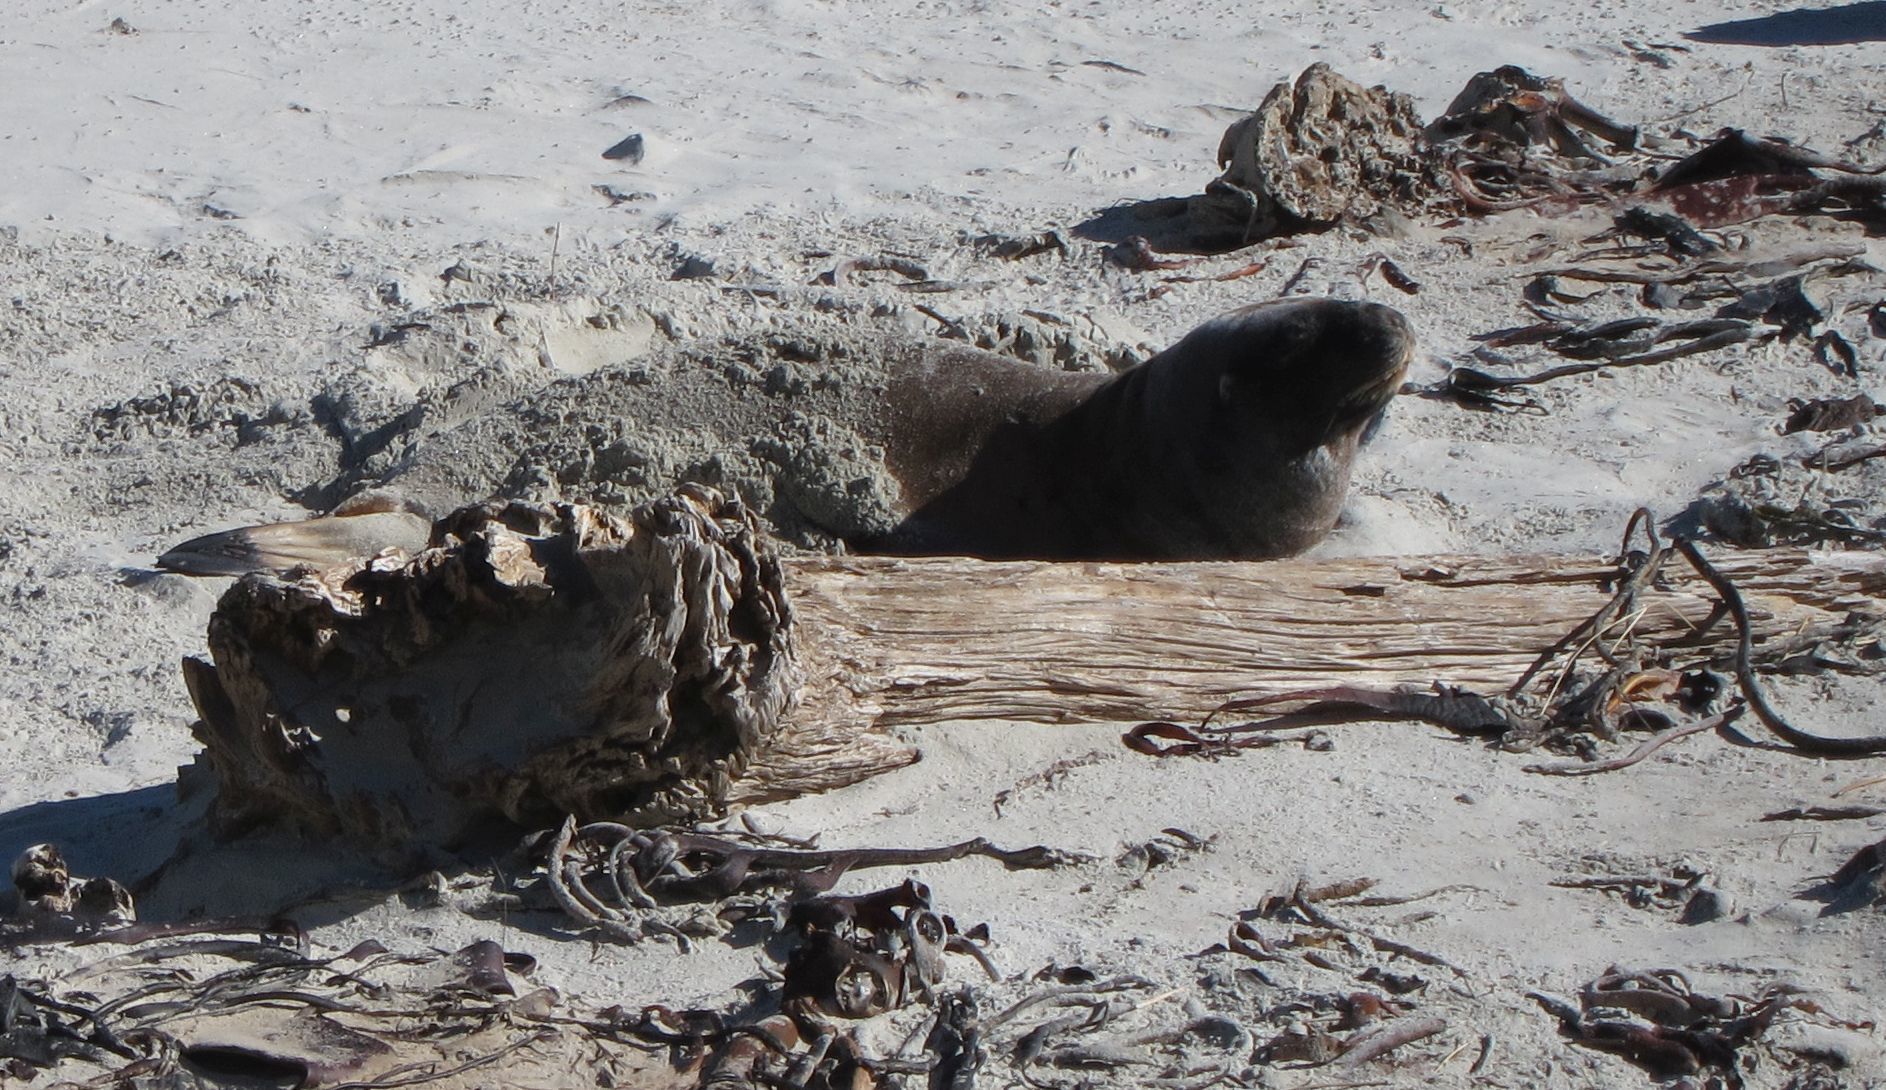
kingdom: Animalia
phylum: Chordata
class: Mammalia
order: Carnivora
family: Otariidae
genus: Phocarctos
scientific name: Phocarctos hookeri
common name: New zealand sea lion
